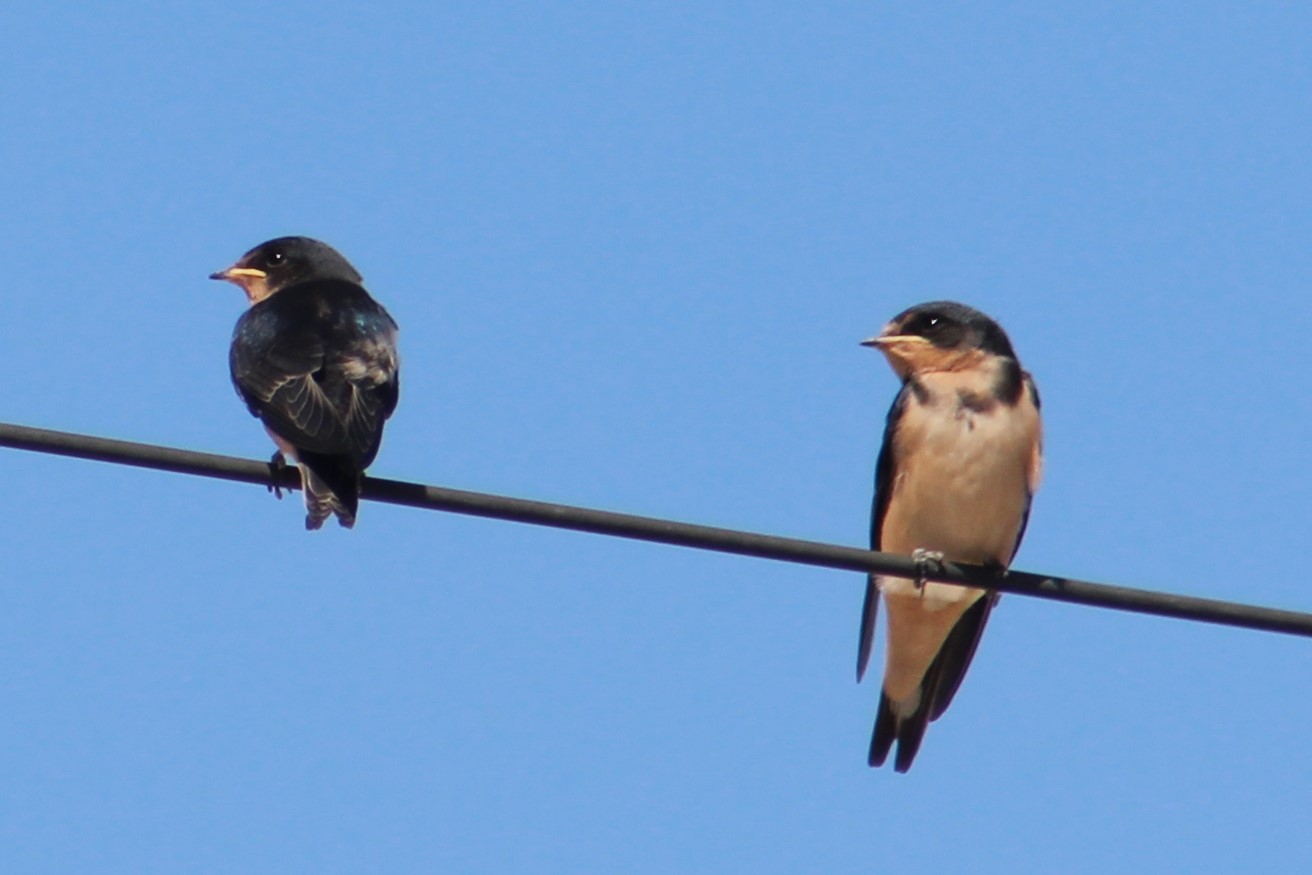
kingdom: Animalia
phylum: Chordata
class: Aves
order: Passeriformes
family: Hirundinidae
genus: Hirundo
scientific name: Hirundo rustica
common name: Barn swallow
